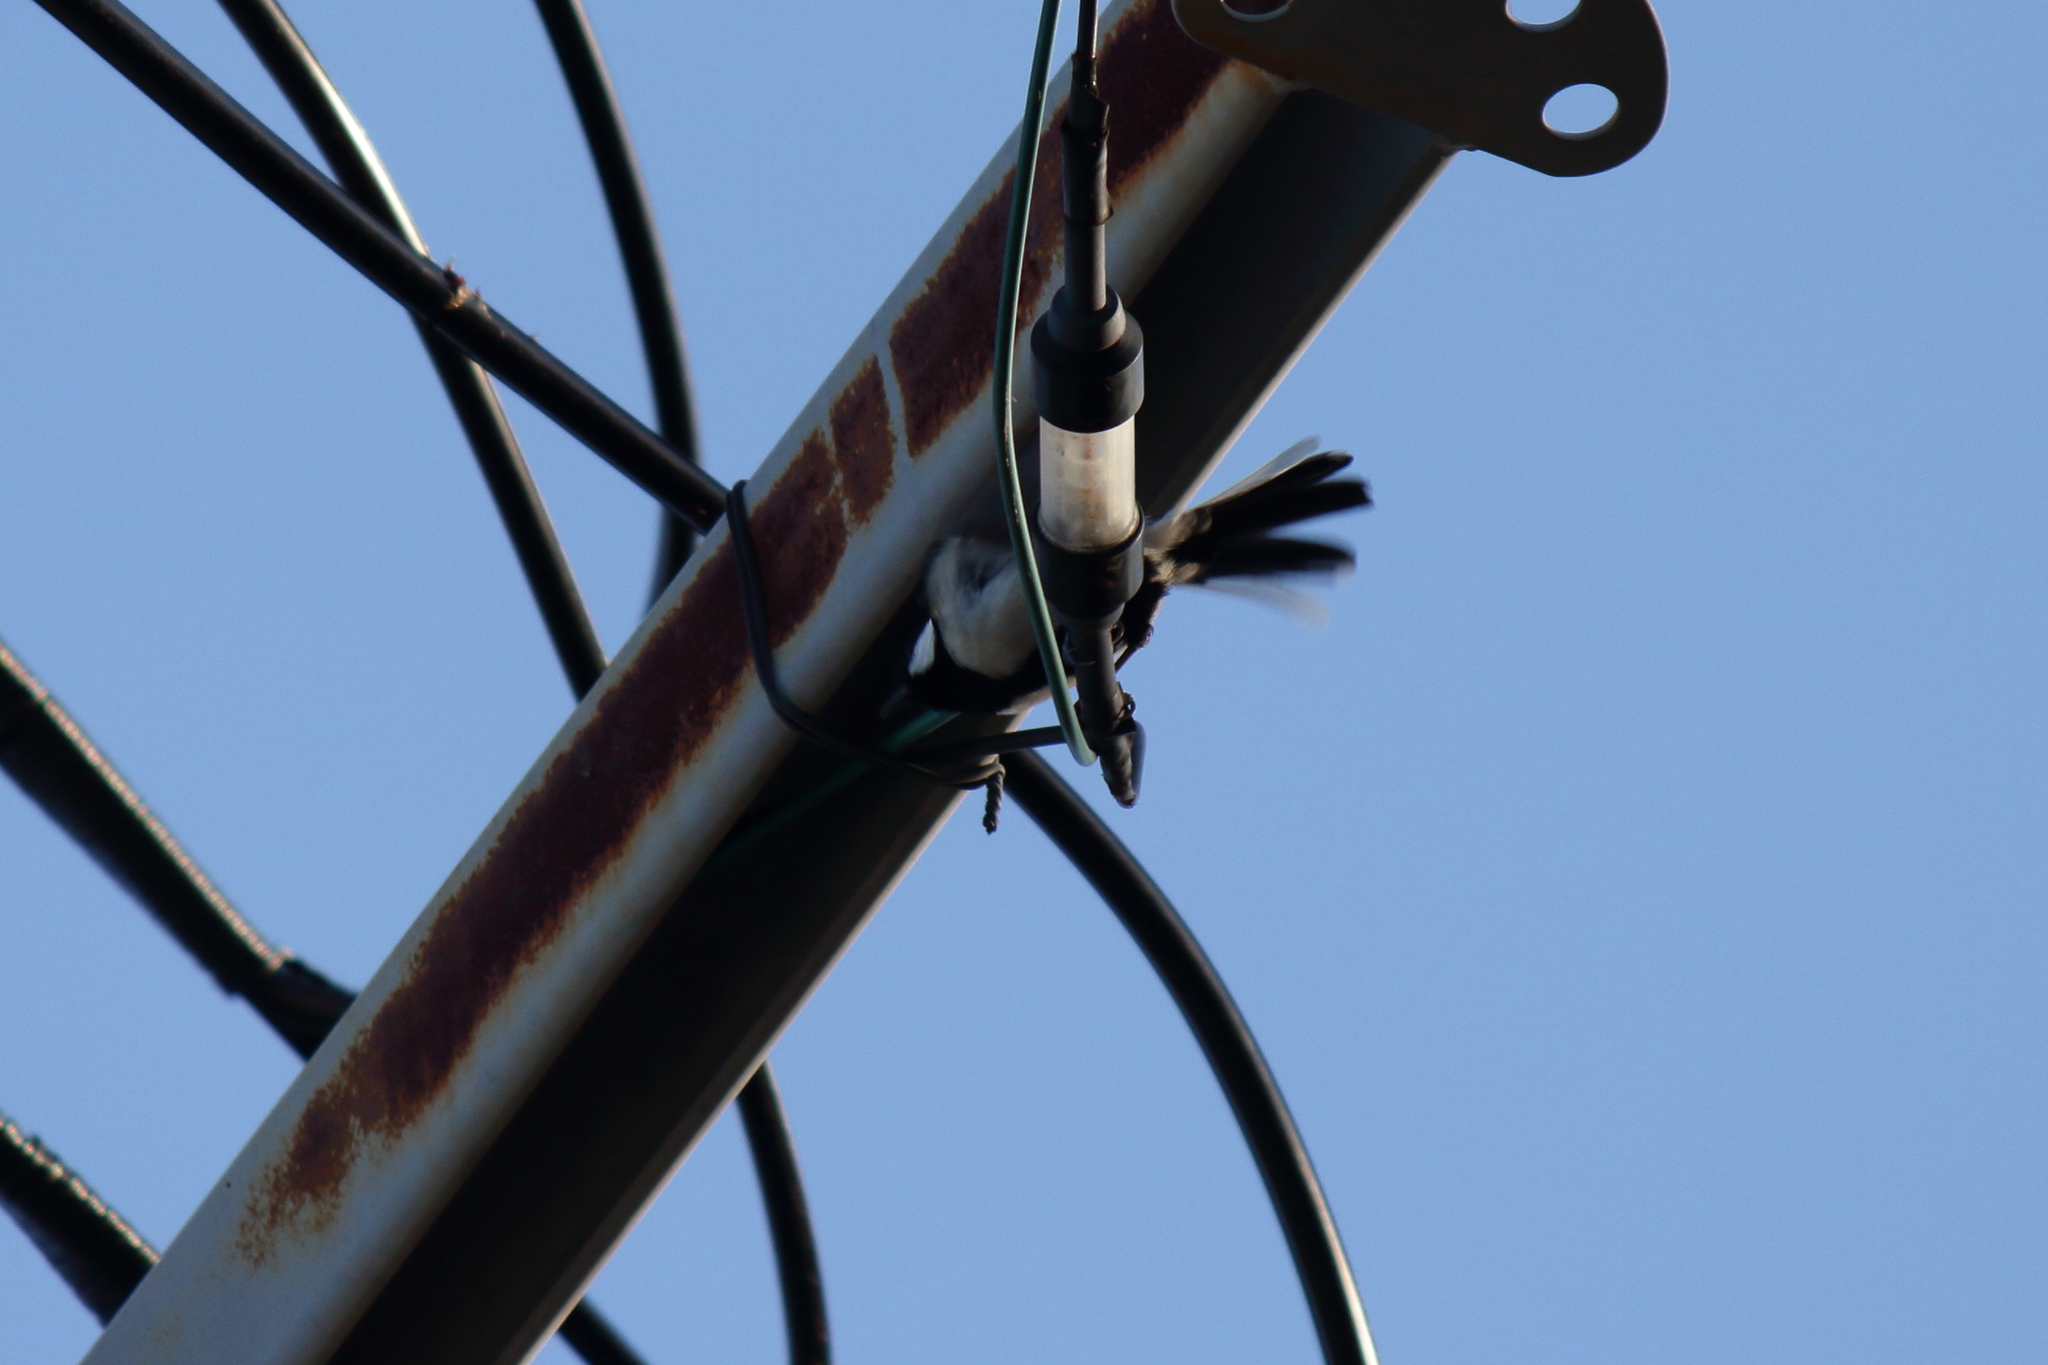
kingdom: Animalia
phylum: Chordata
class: Aves
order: Passeriformes
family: Paridae
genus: Parus
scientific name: Parus minor
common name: Japanese tit
